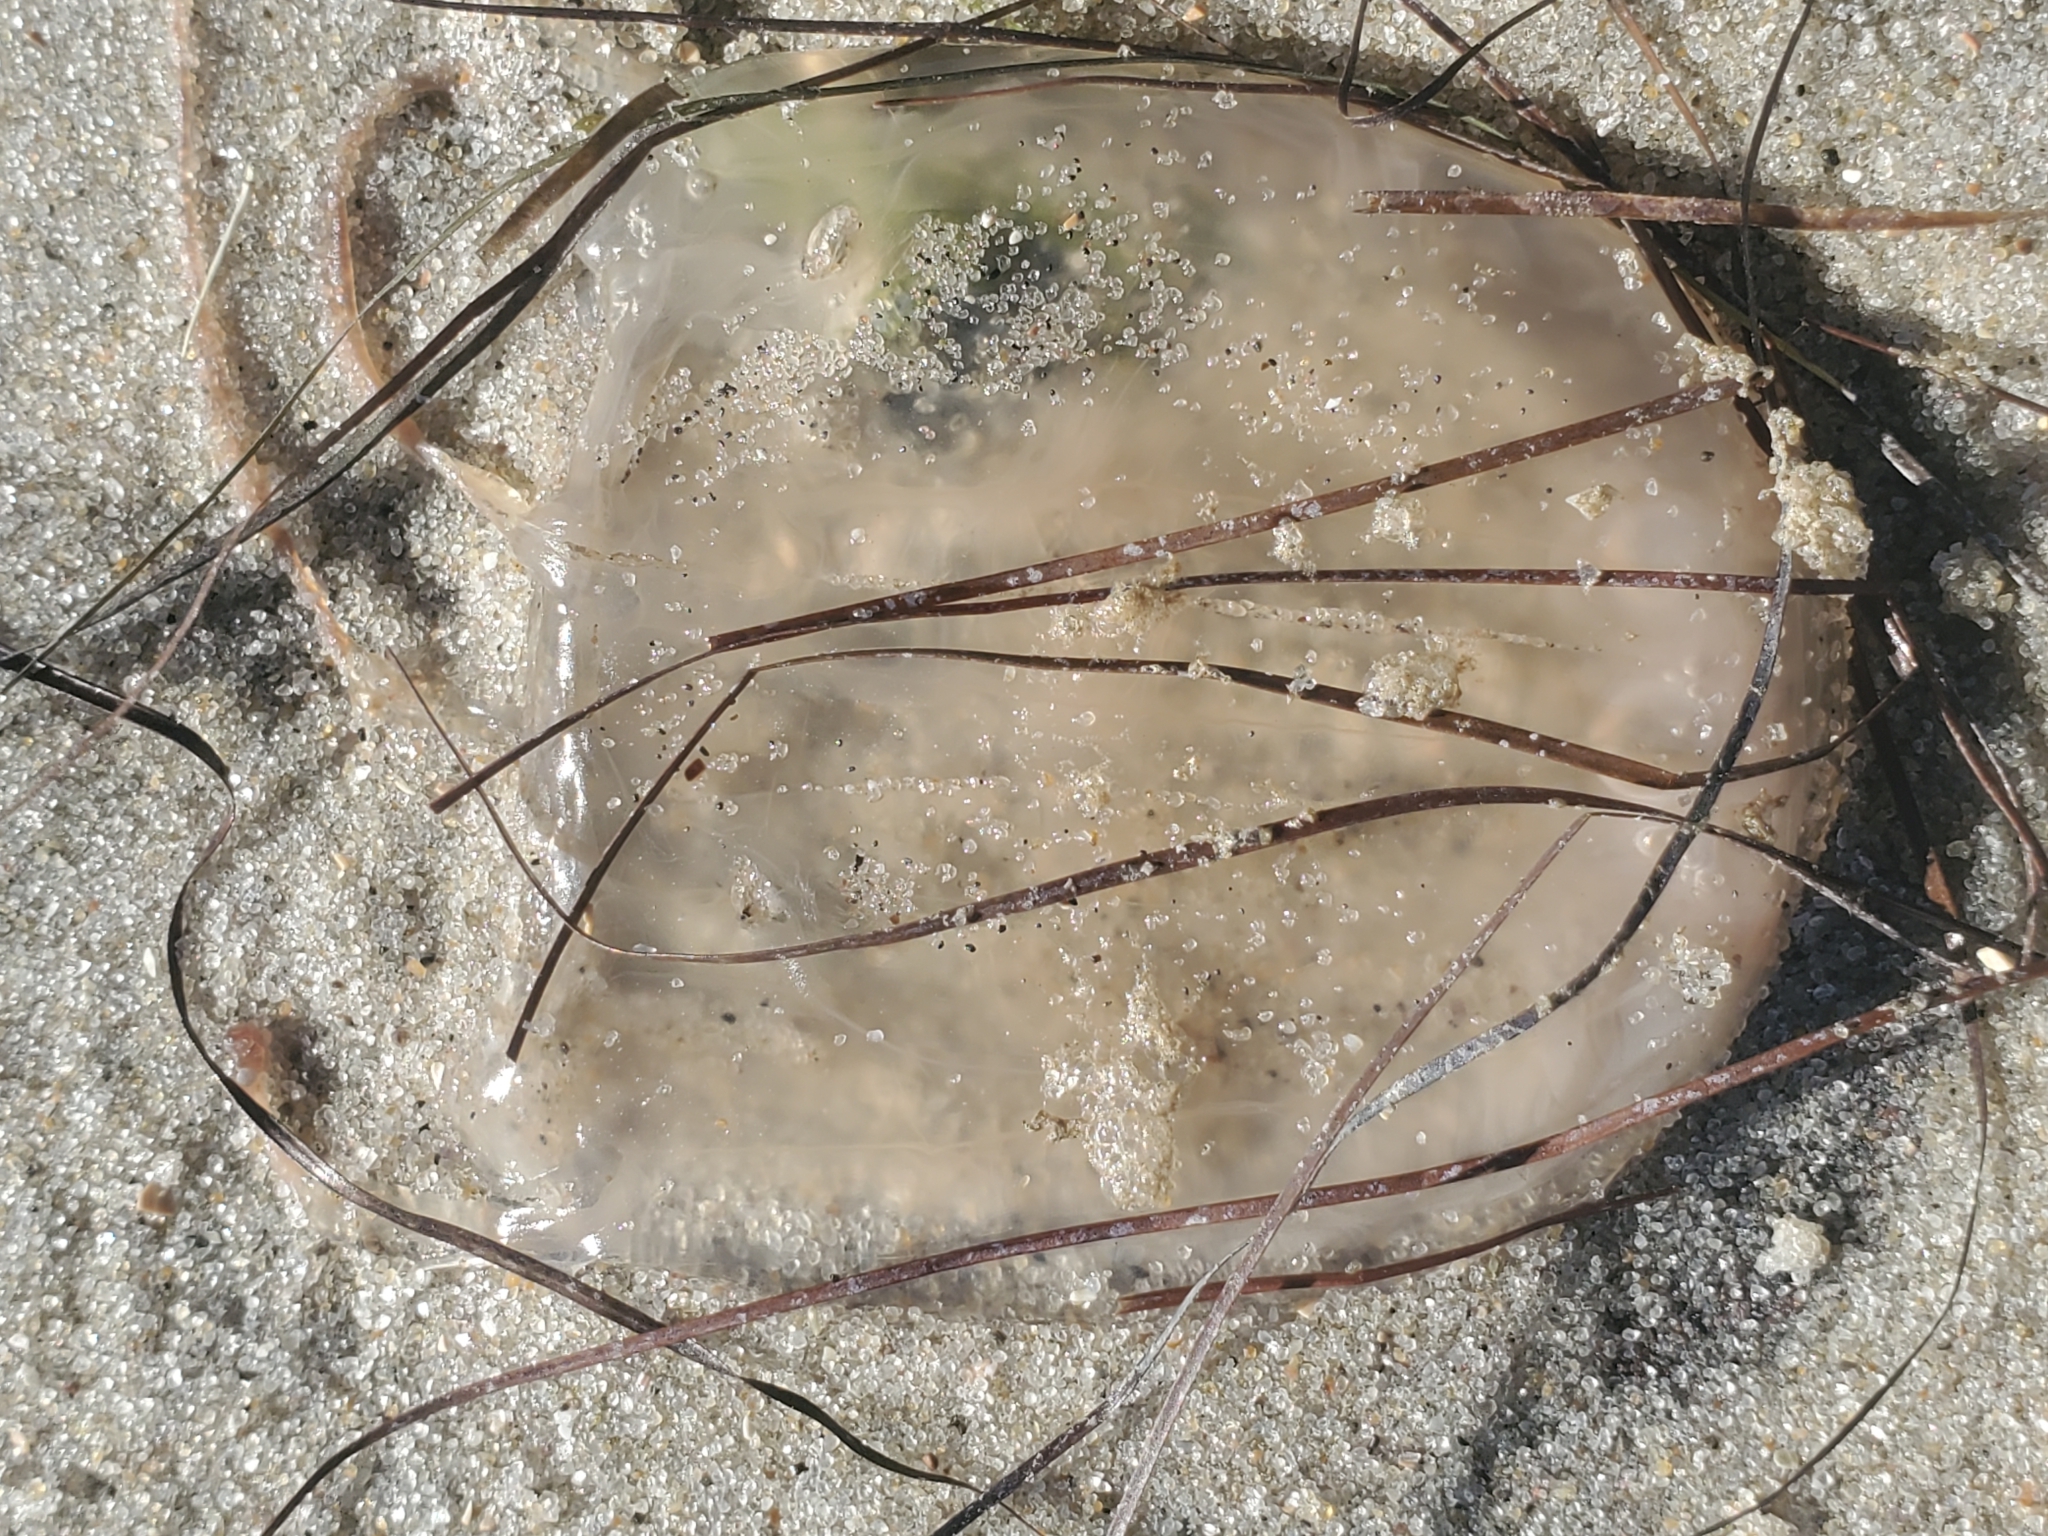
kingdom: Animalia
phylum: Cnidaria
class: Cubozoa
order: Carybdeida
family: Tamoyidae
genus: Tamoya
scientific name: Tamoya haplonema
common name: Box jelly
